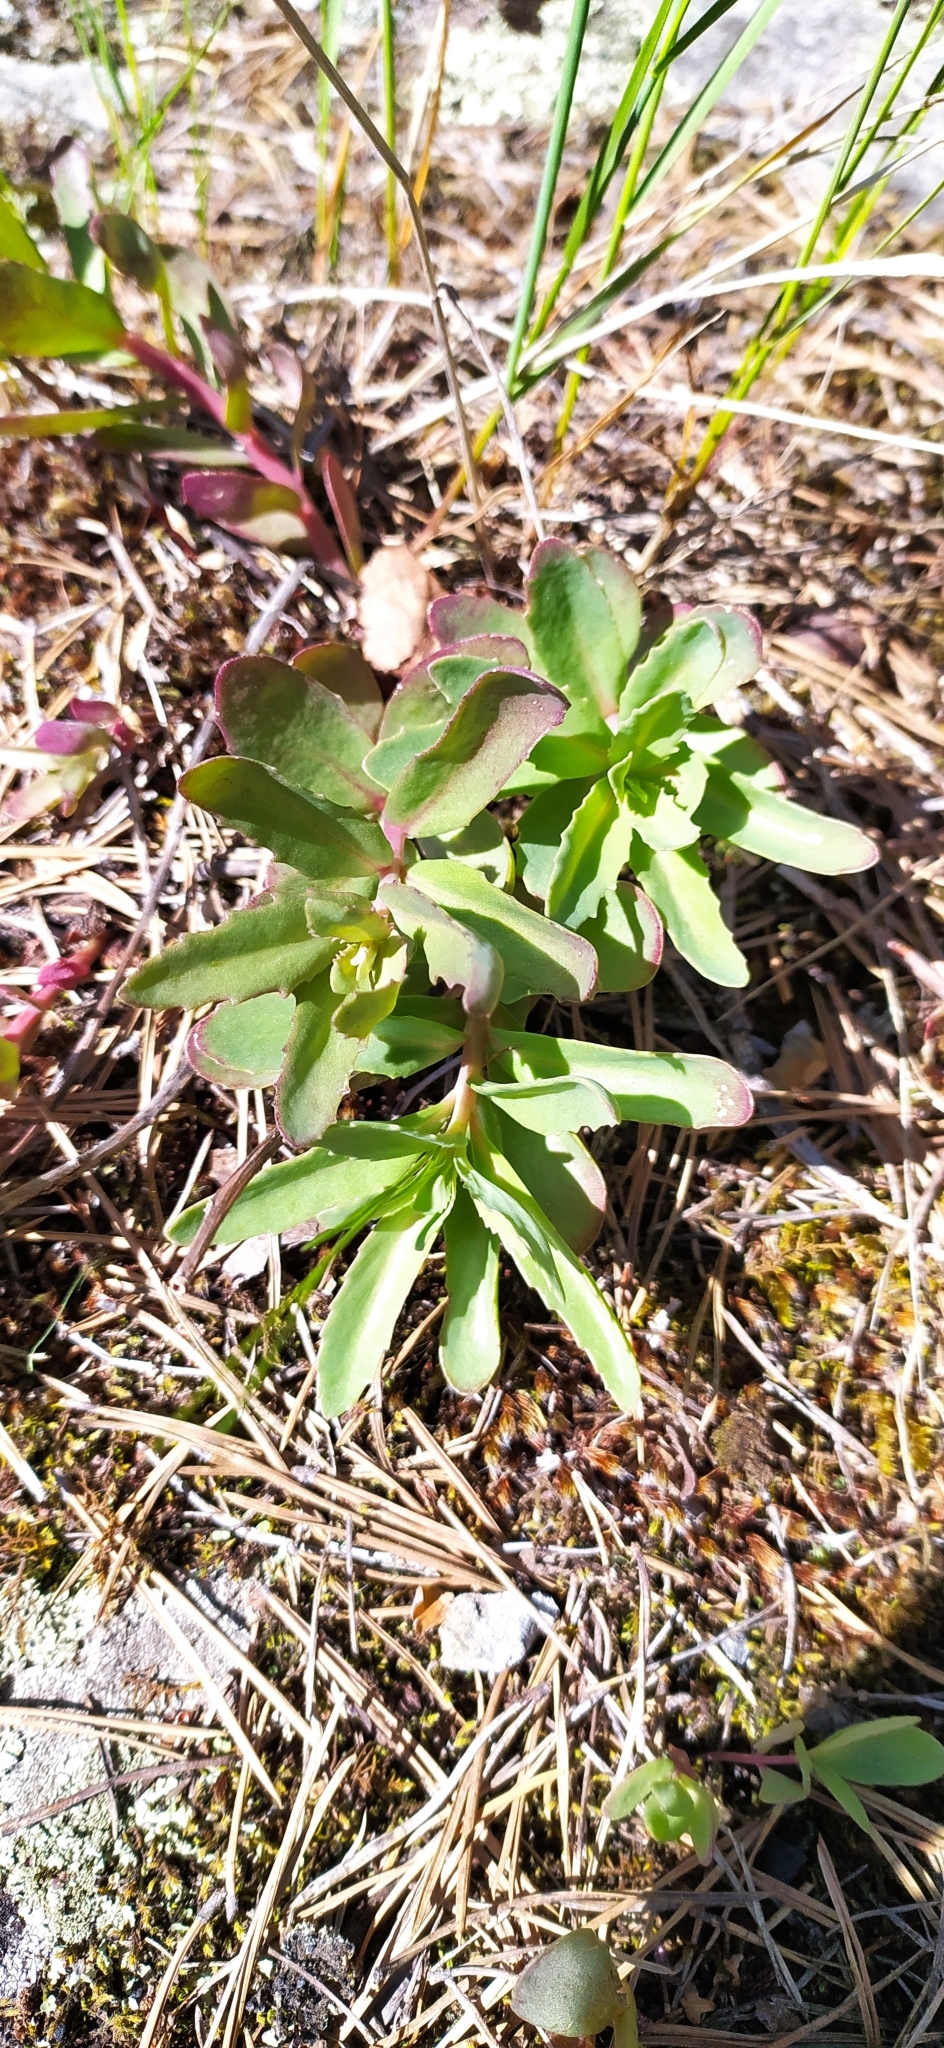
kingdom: Plantae
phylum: Tracheophyta
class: Magnoliopsida
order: Saxifragales
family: Crassulaceae
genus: Hylotelephium
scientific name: Hylotelephium telephium
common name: Live-forever
